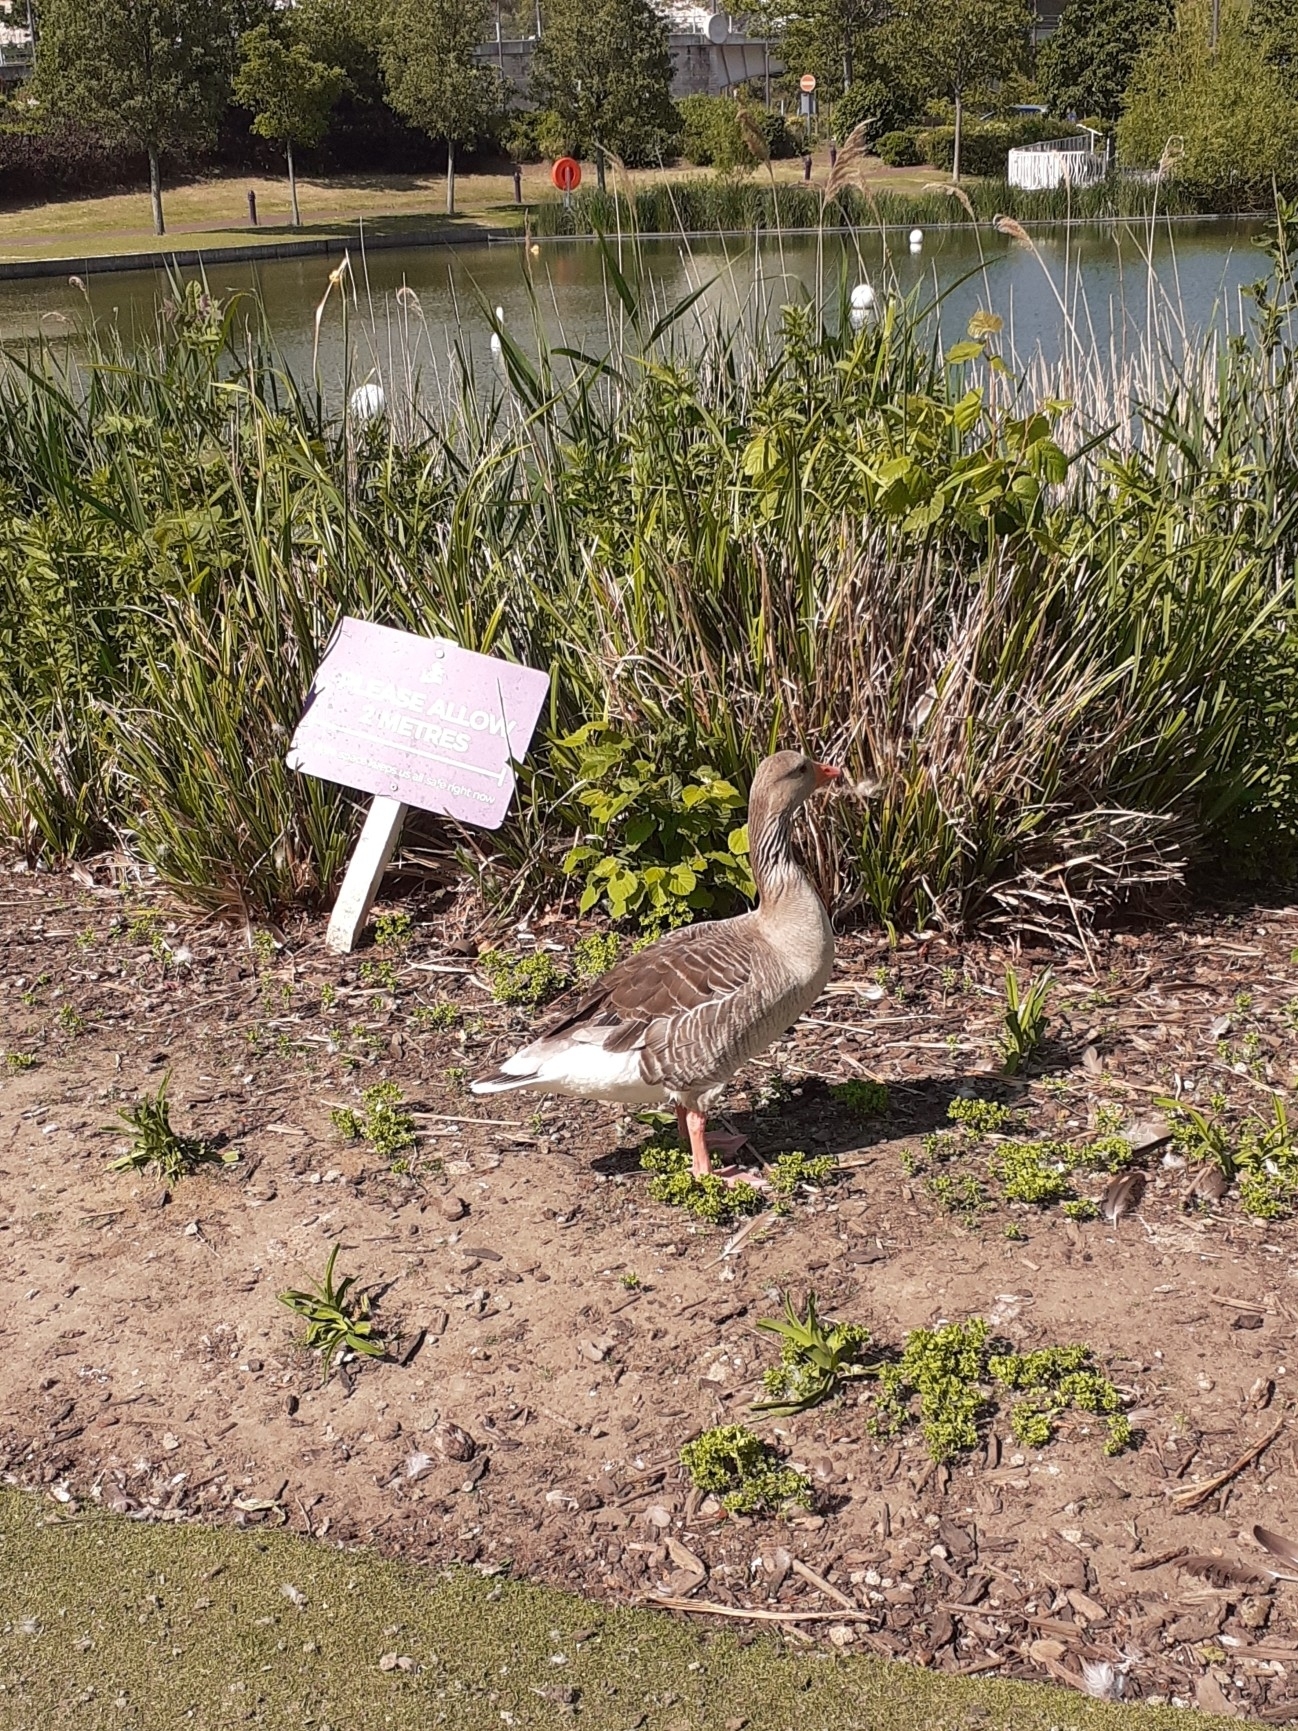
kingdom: Animalia
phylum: Chordata
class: Aves
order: Anseriformes
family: Anatidae
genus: Anser
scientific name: Anser anser
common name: Greylag goose
